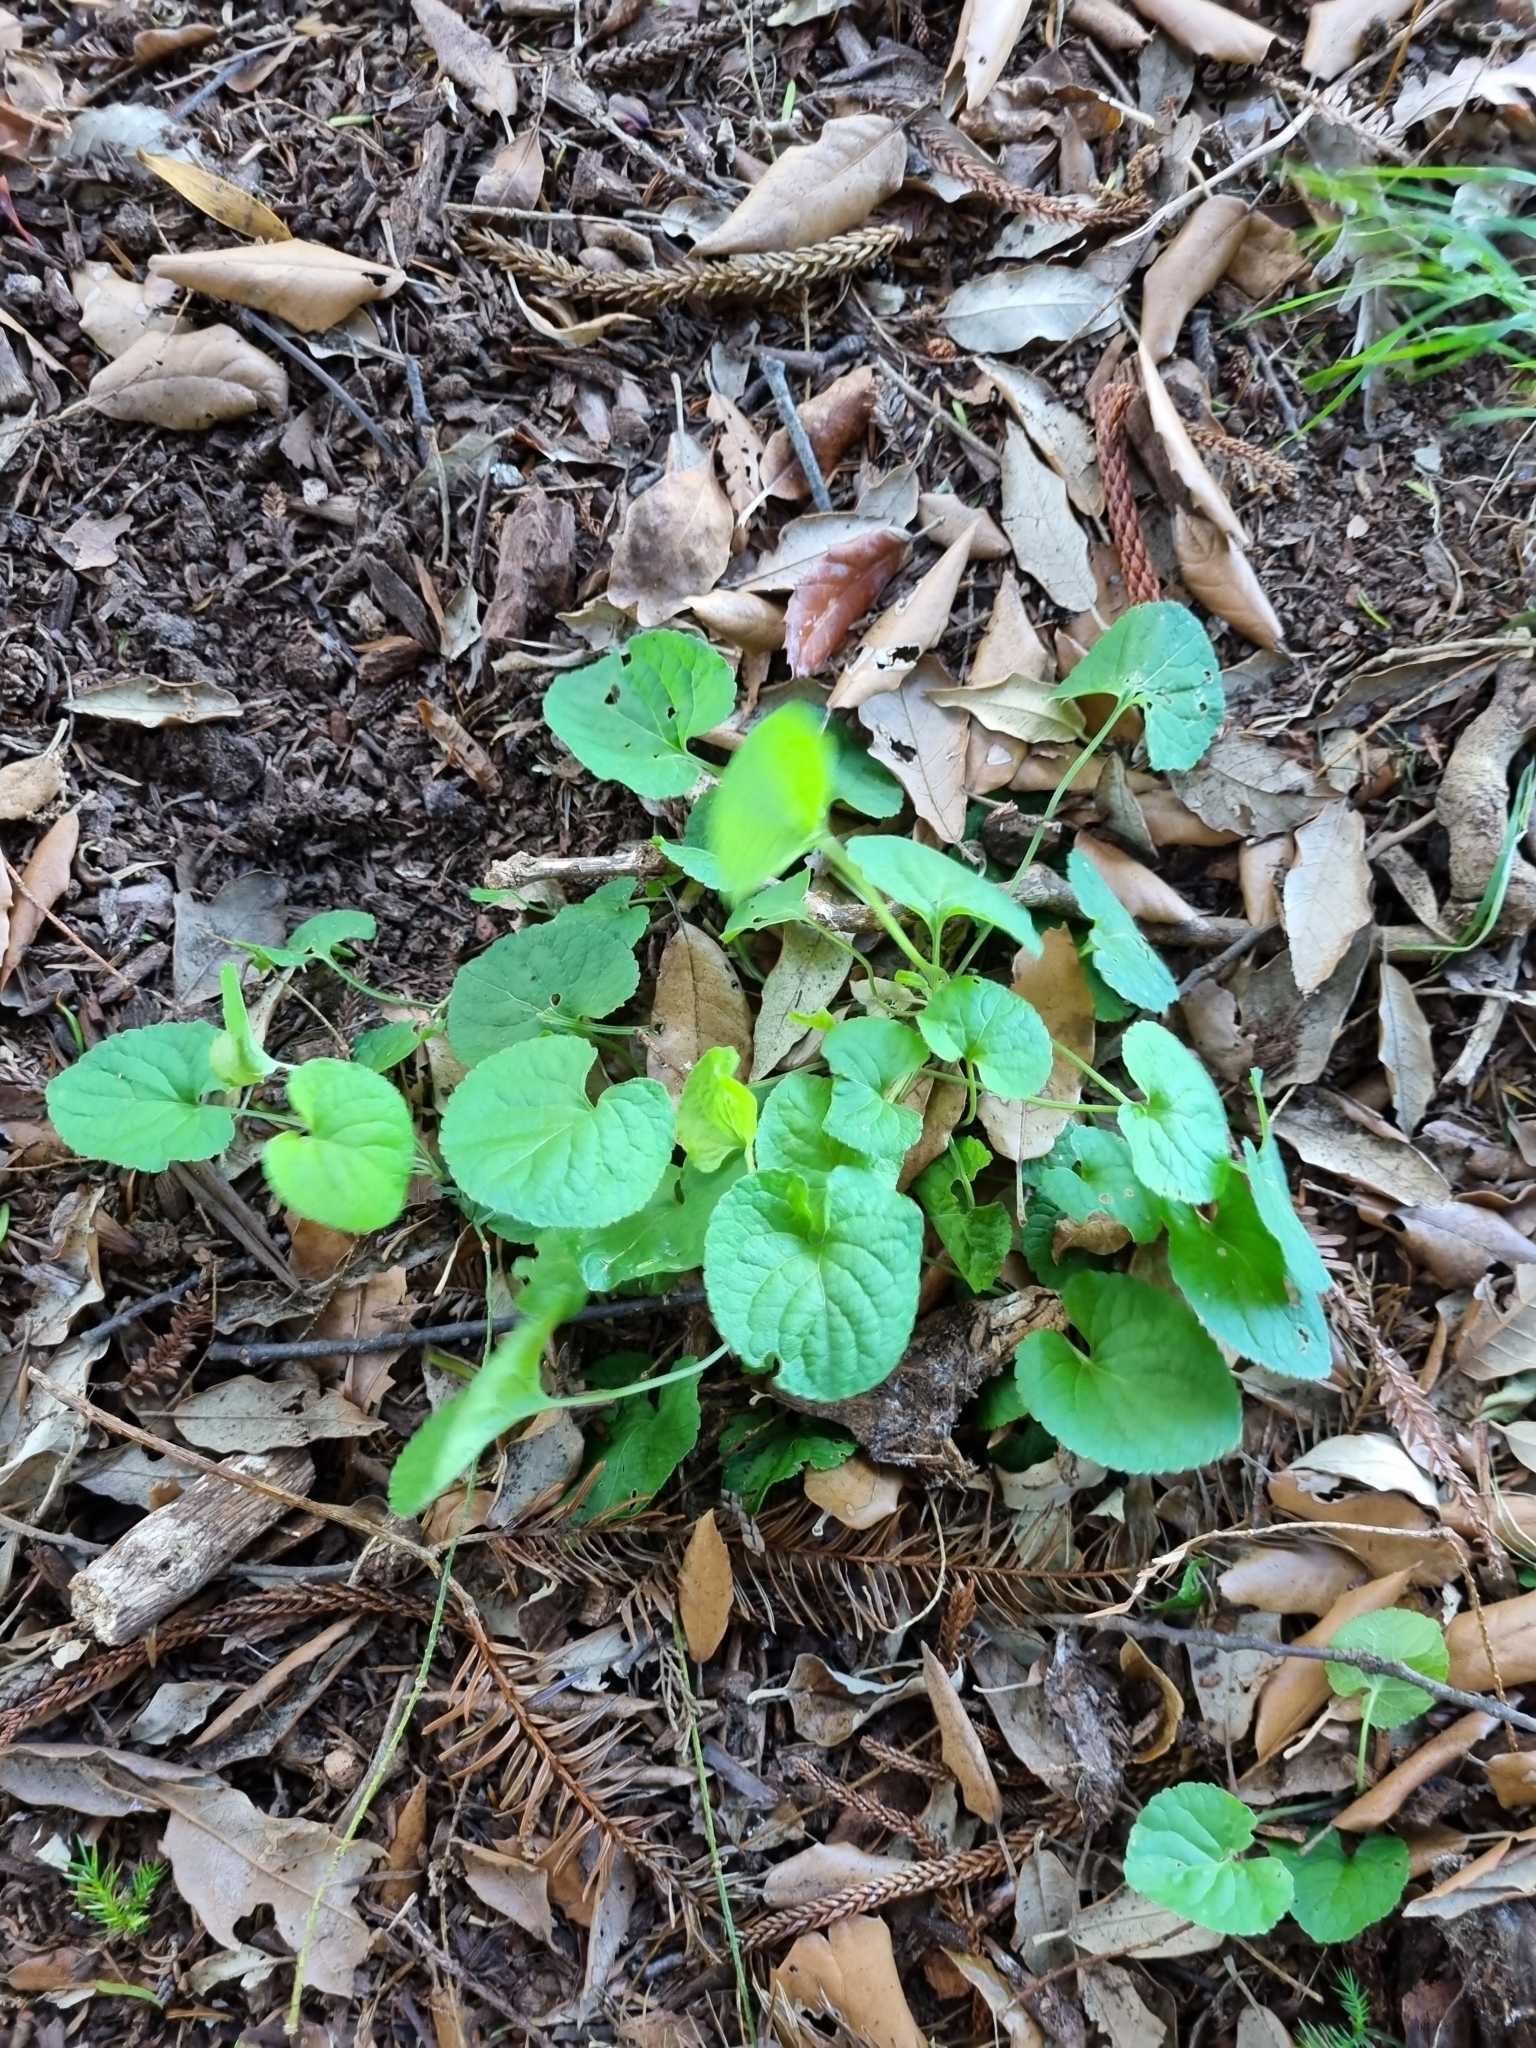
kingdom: Plantae
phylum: Tracheophyta
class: Magnoliopsida
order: Malpighiales
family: Violaceae
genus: Viola
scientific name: Viola odorata
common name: Sweet violet
